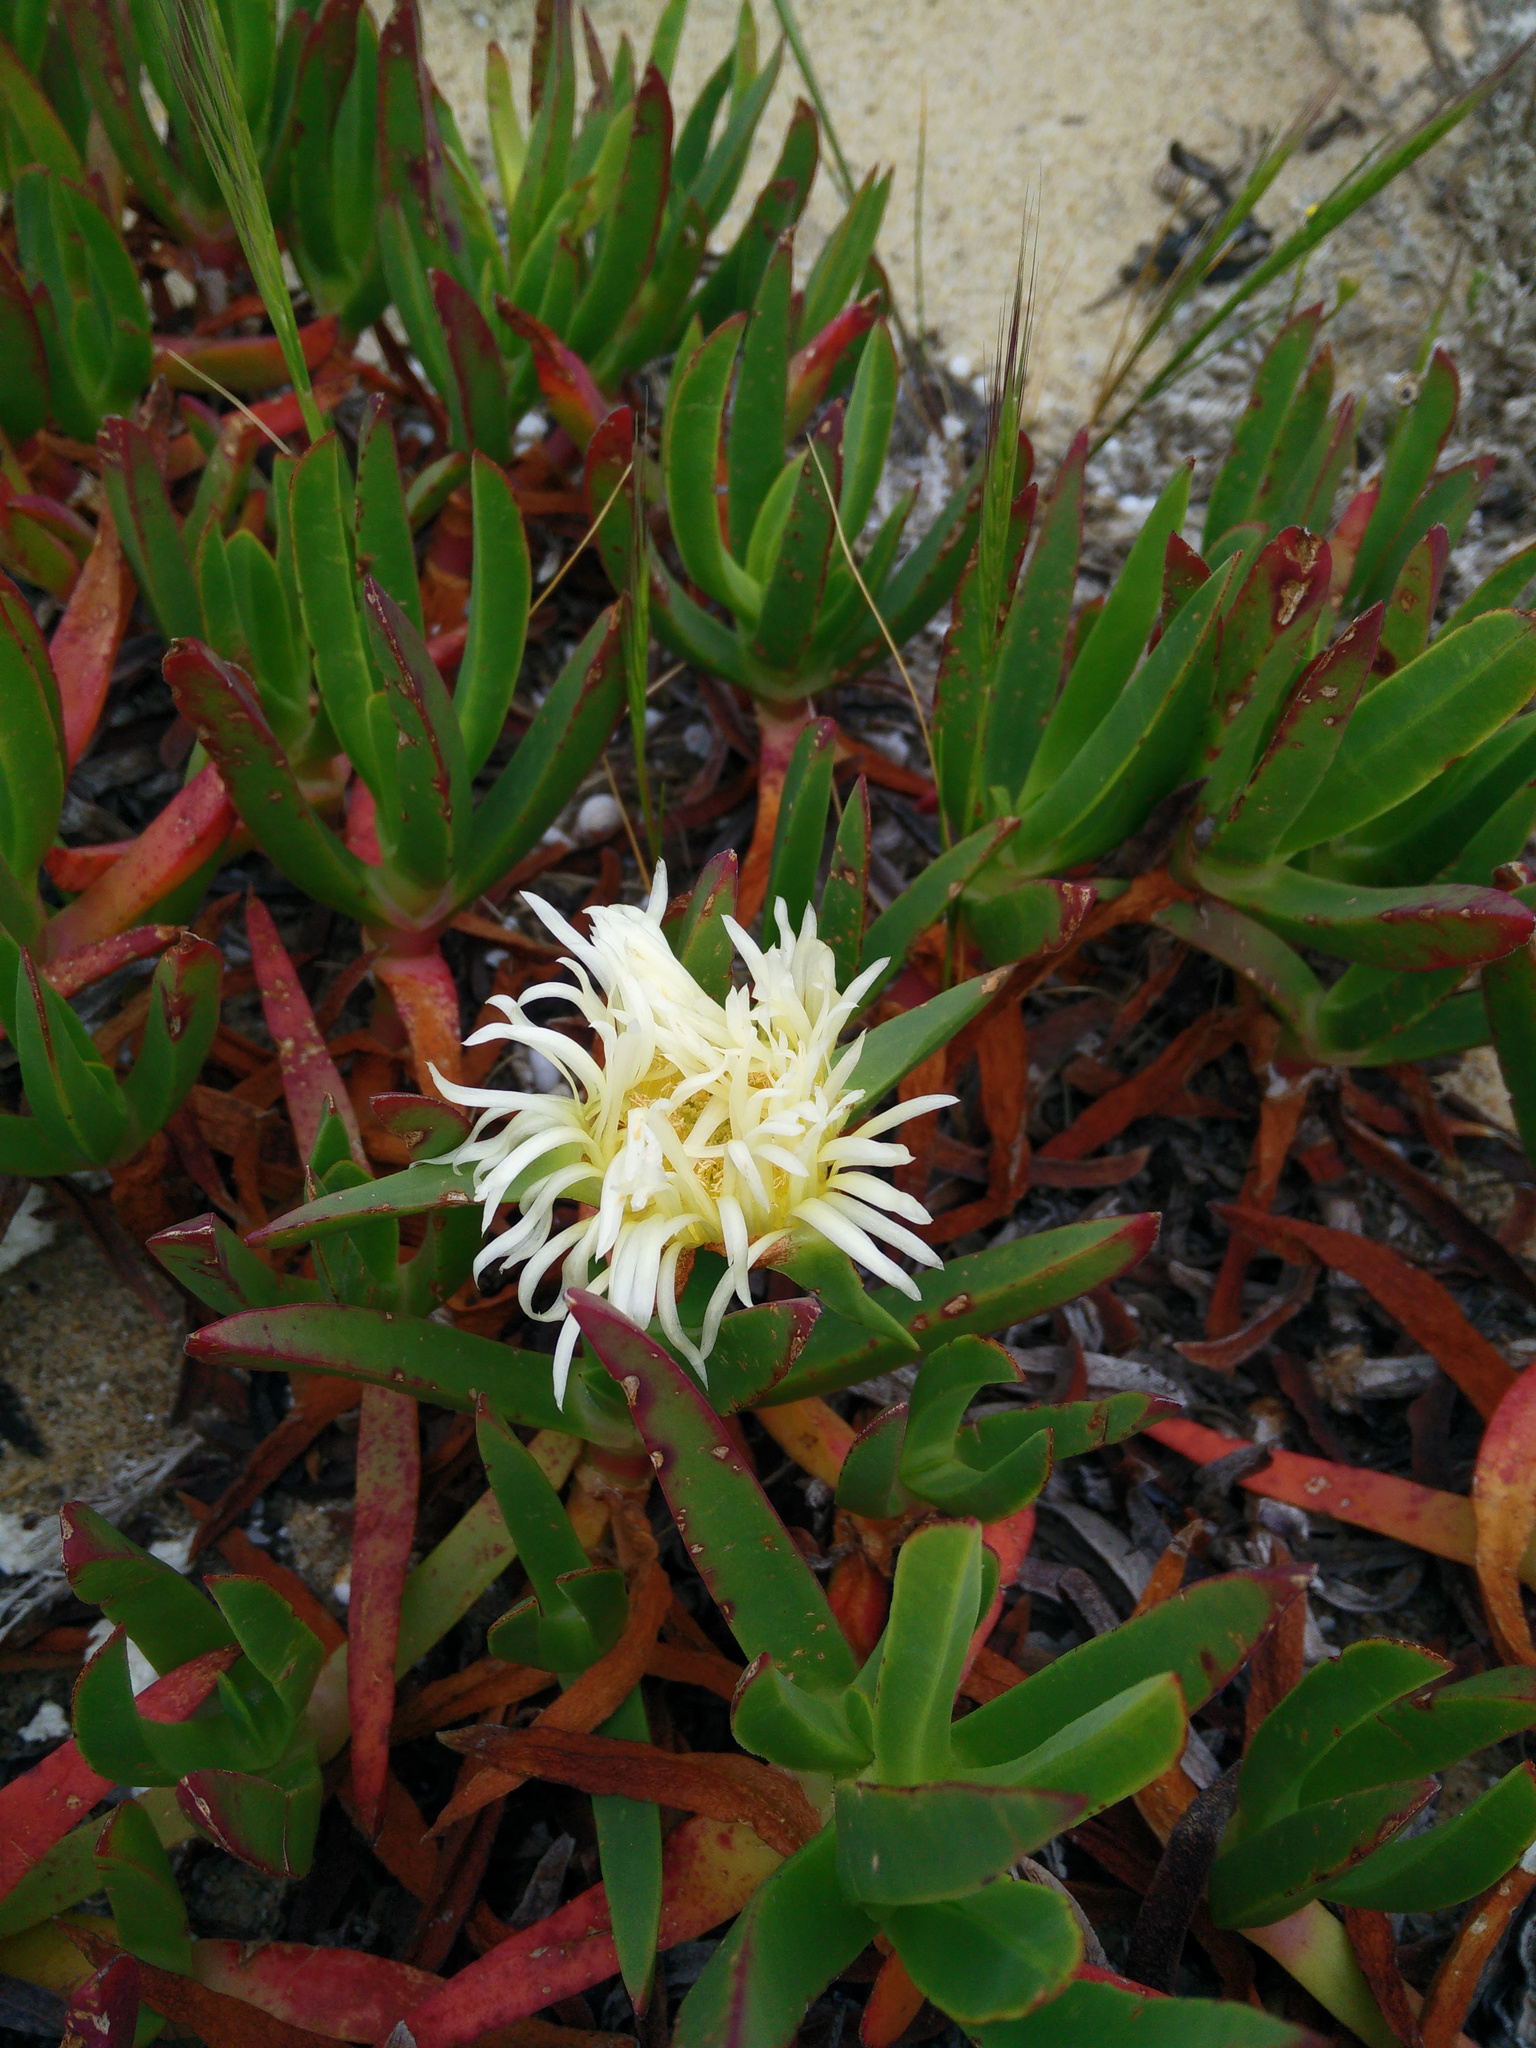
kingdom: Plantae
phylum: Tracheophyta
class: Magnoliopsida
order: Caryophyllales
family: Aizoaceae
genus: Carpobrotus
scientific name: Carpobrotus edulis
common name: Hottentot-fig
